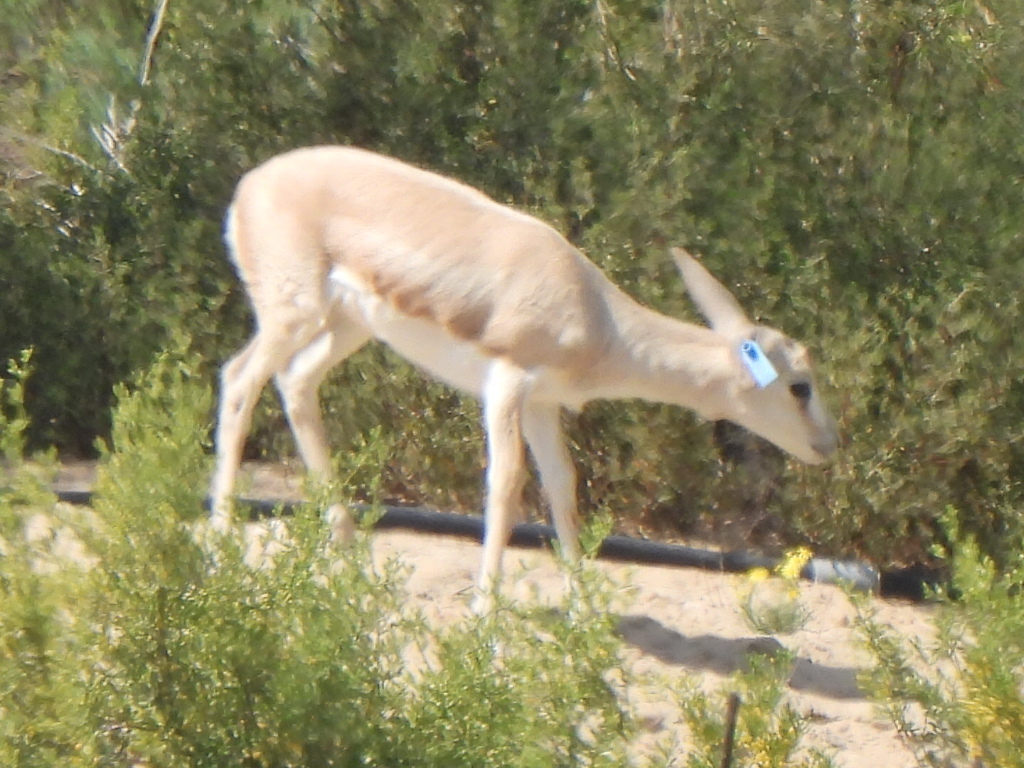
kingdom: Animalia
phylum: Chordata
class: Mammalia
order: Artiodactyla
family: Bovidae
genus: Gazella
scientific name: Gazella marica
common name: Arabian sand gazelle
